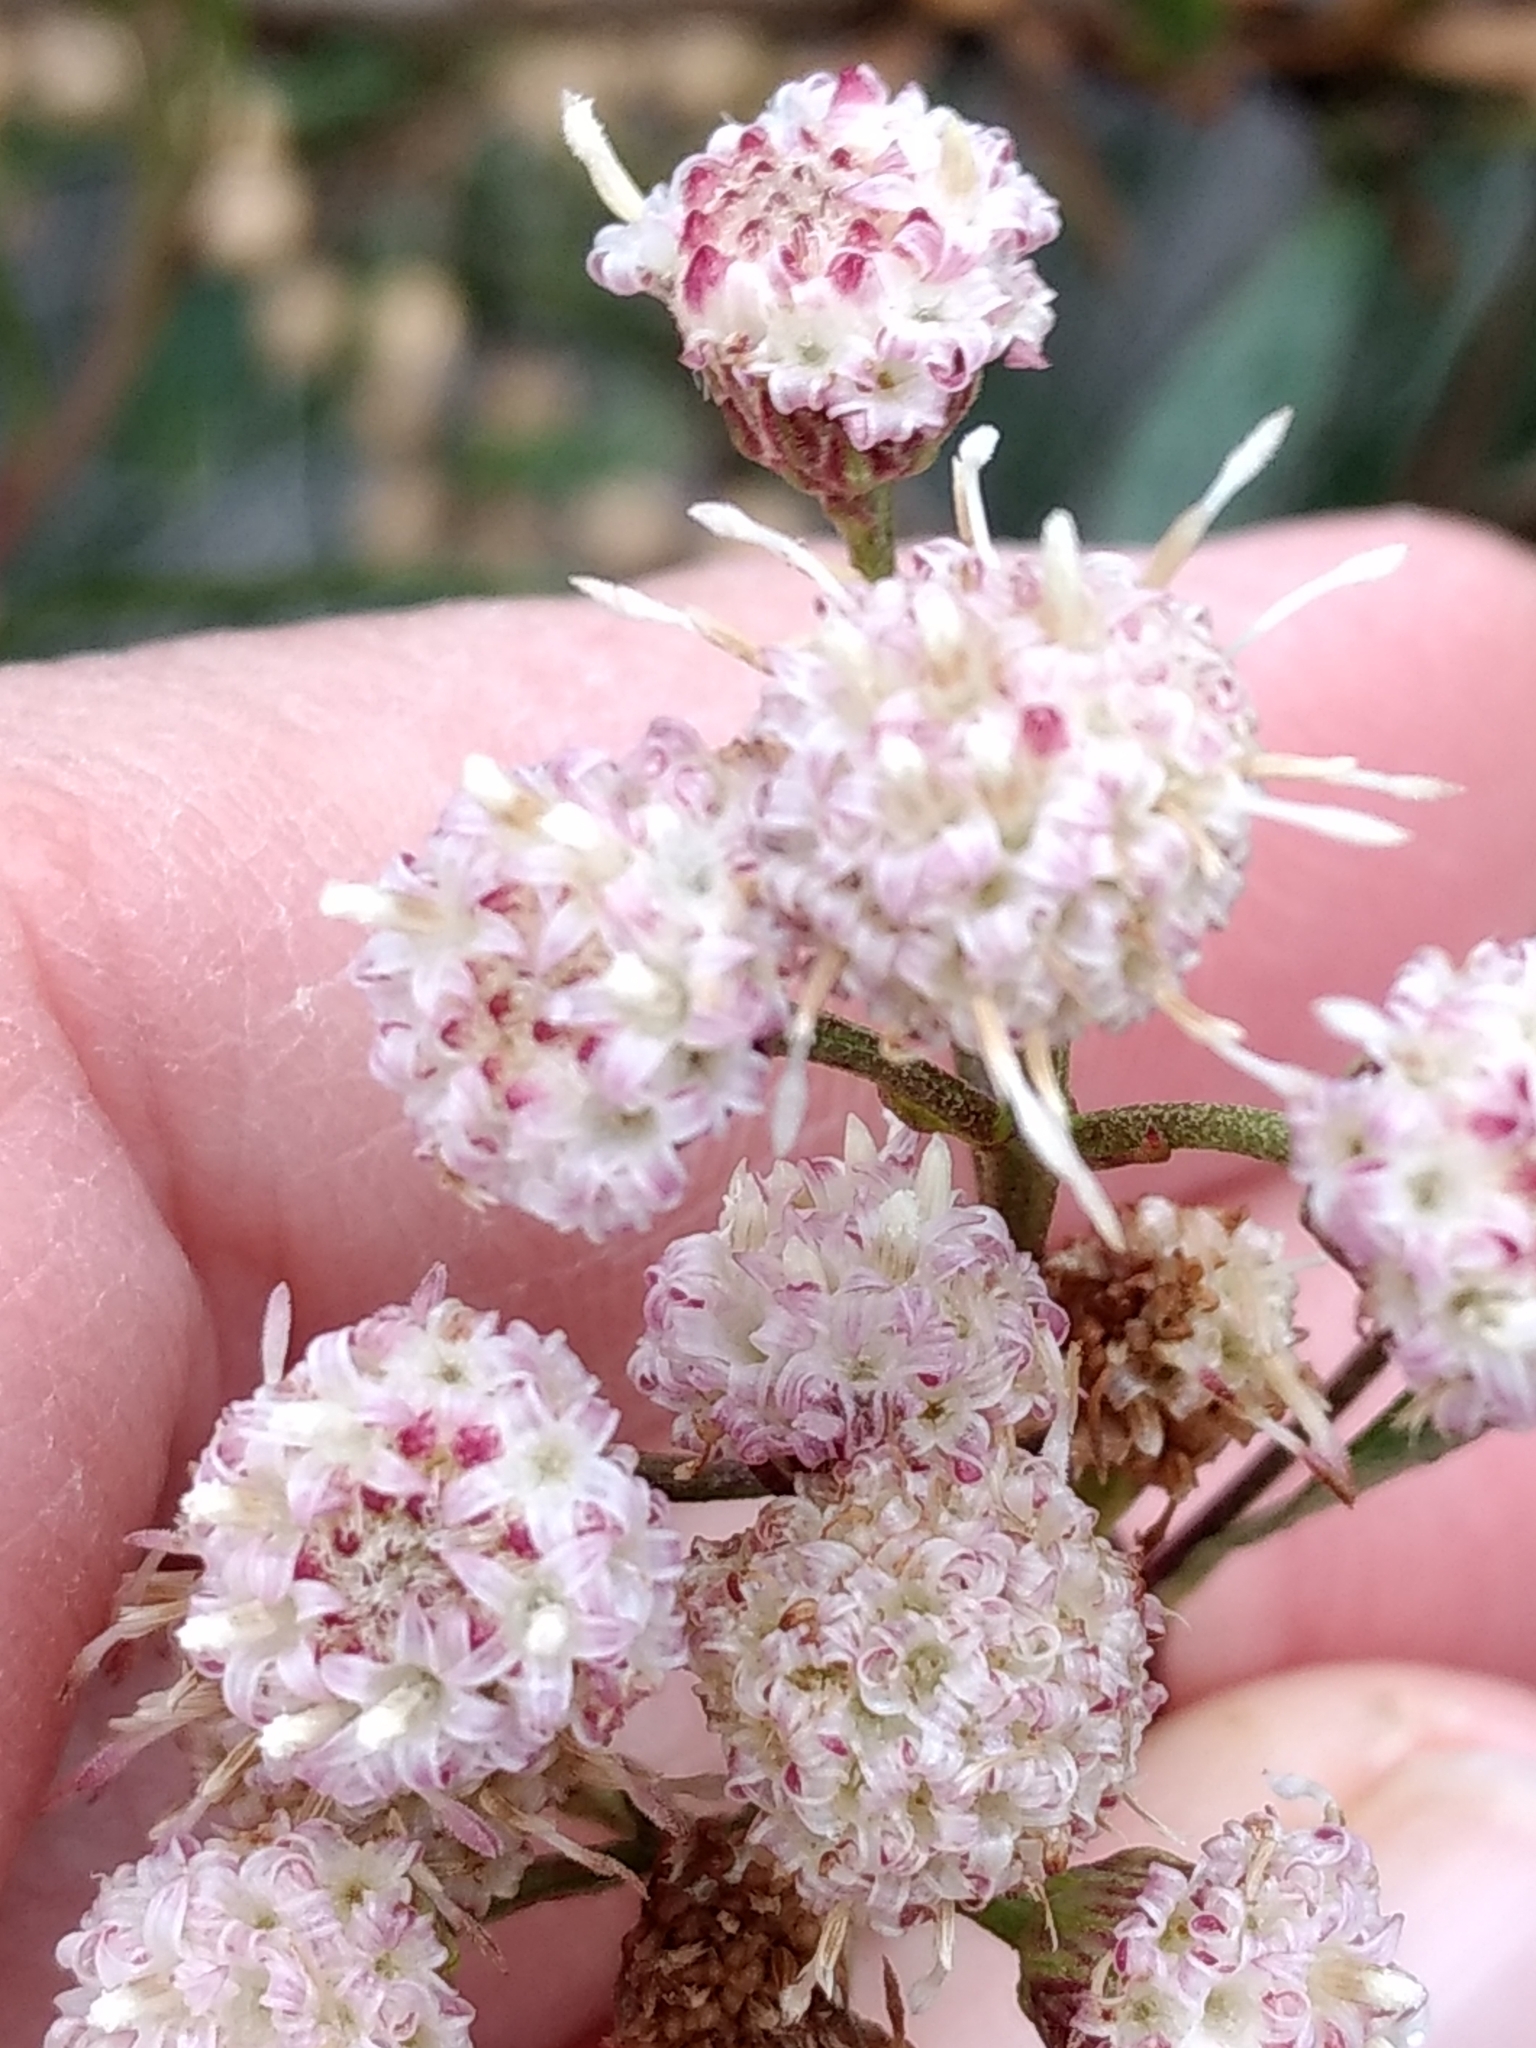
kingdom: Plantae
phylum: Tracheophyta
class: Magnoliopsida
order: Asterales
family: Asteraceae
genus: Baccharis
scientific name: Baccharis salicifolia
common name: Sticky baccharis
